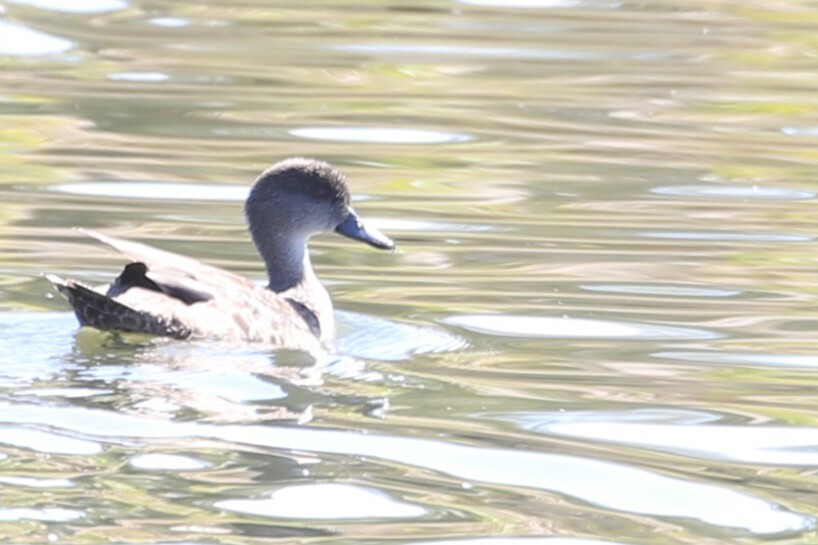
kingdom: Animalia
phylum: Chordata
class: Aves
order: Anseriformes
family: Anatidae
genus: Anas
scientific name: Anas gracilis
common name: Grey teal
